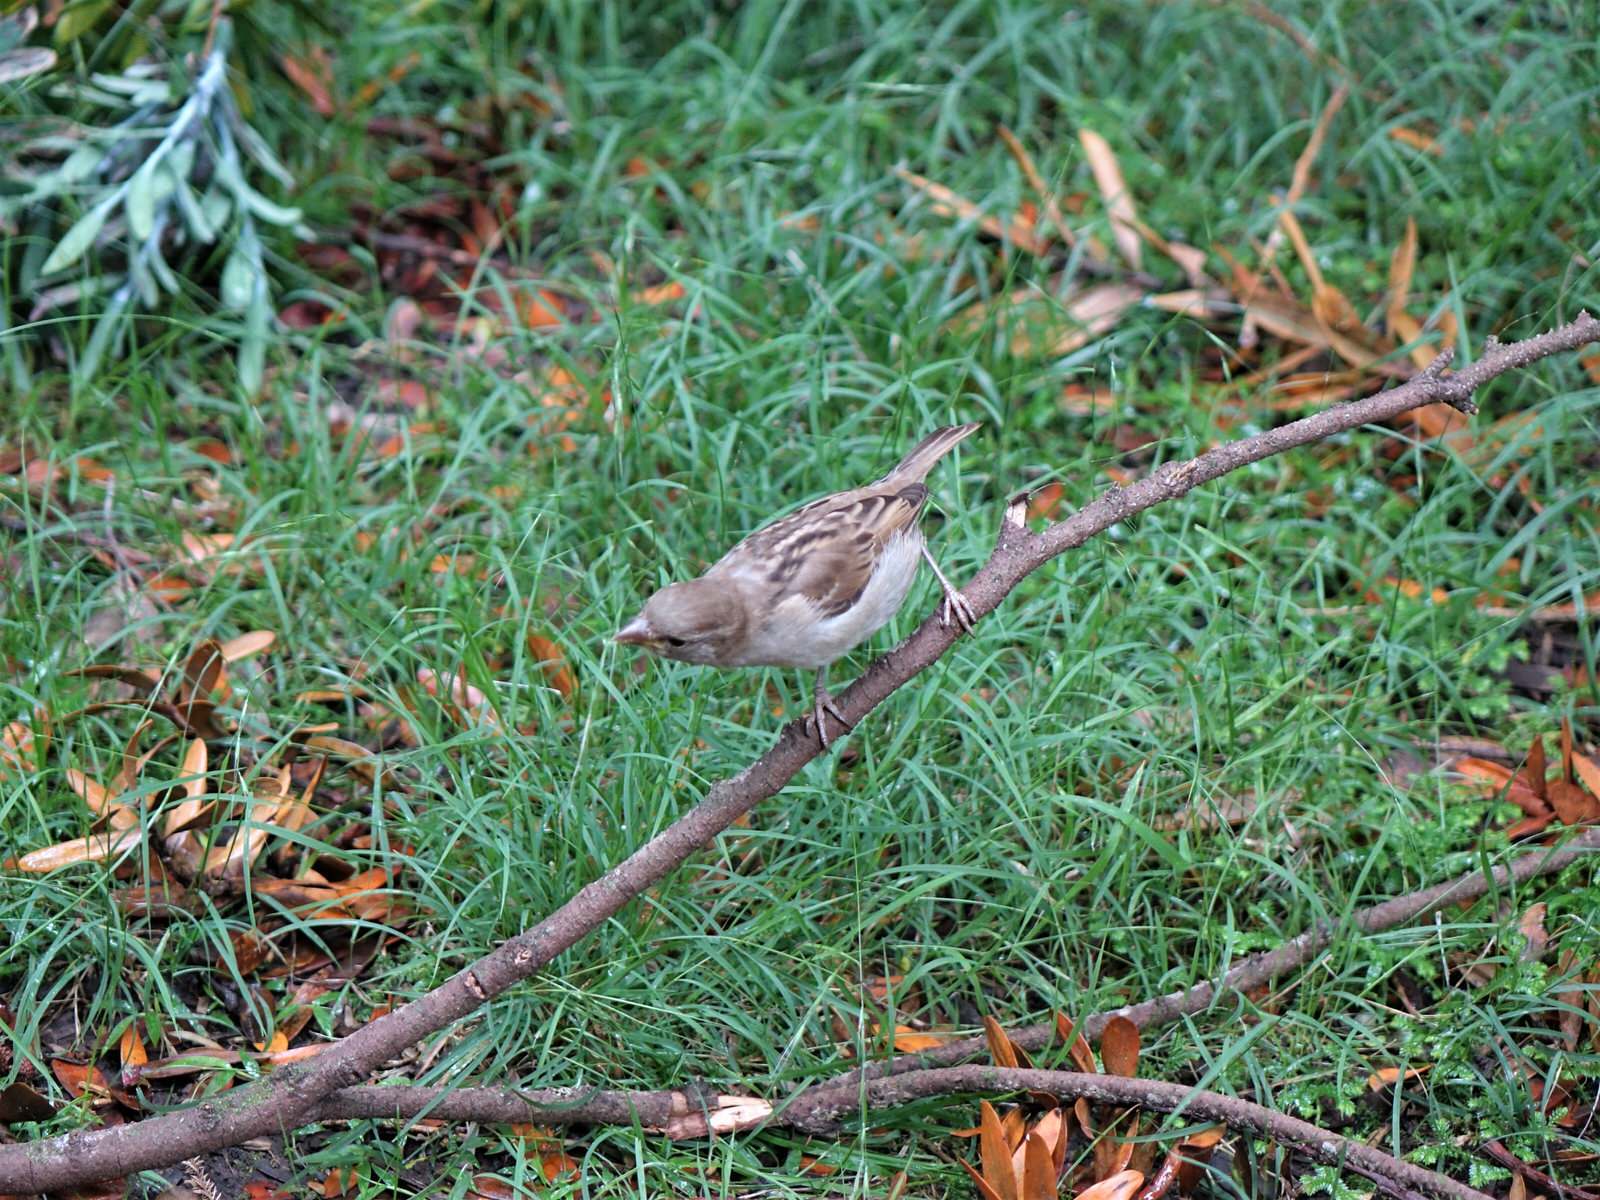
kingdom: Animalia
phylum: Chordata
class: Aves
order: Passeriformes
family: Passeridae
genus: Passer
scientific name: Passer domesticus
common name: House sparrow
